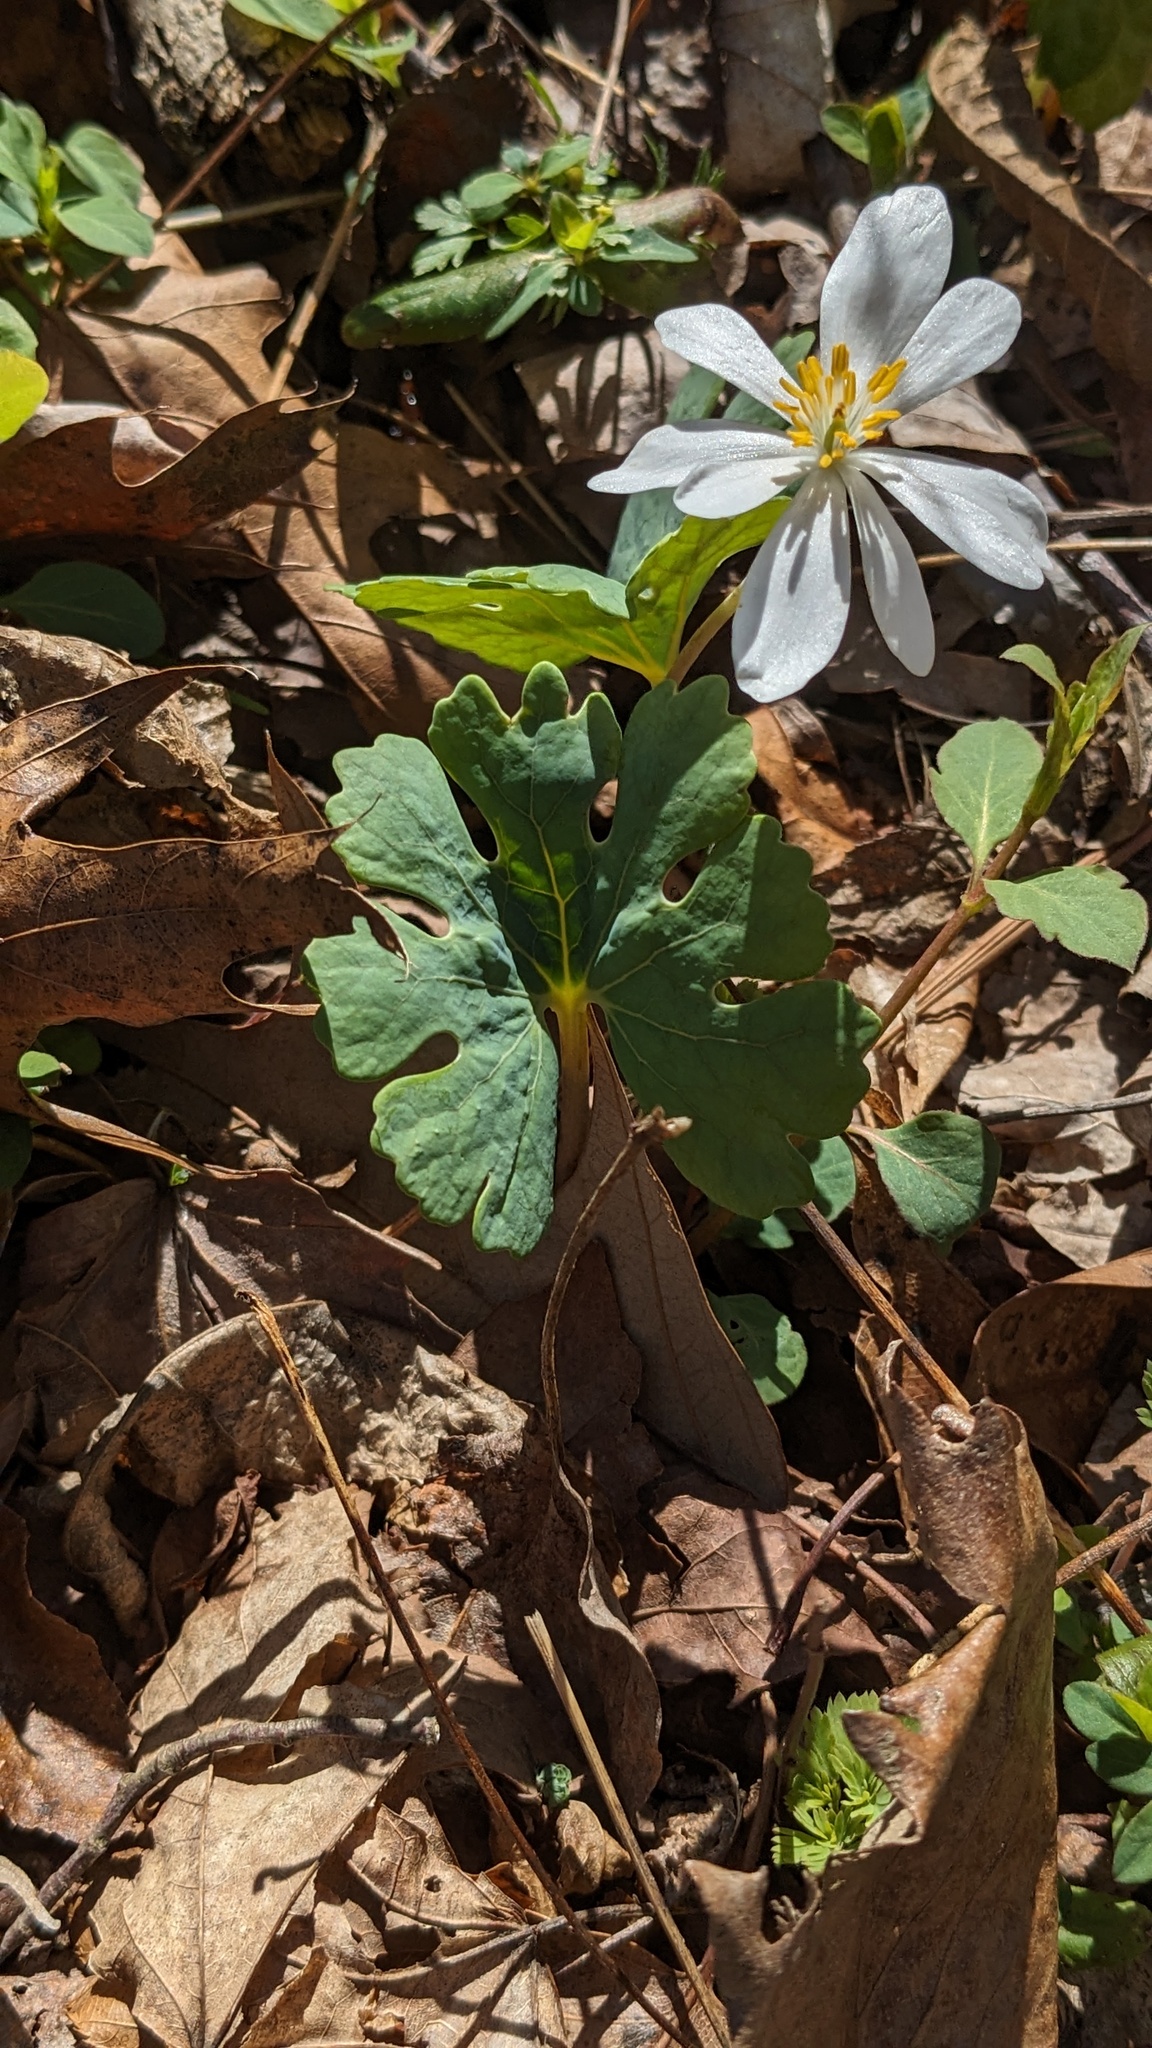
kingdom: Plantae
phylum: Tracheophyta
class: Magnoliopsida
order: Ranunculales
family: Papaveraceae
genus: Sanguinaria
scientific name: Sanguinaria canadensis
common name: Bloodroot
